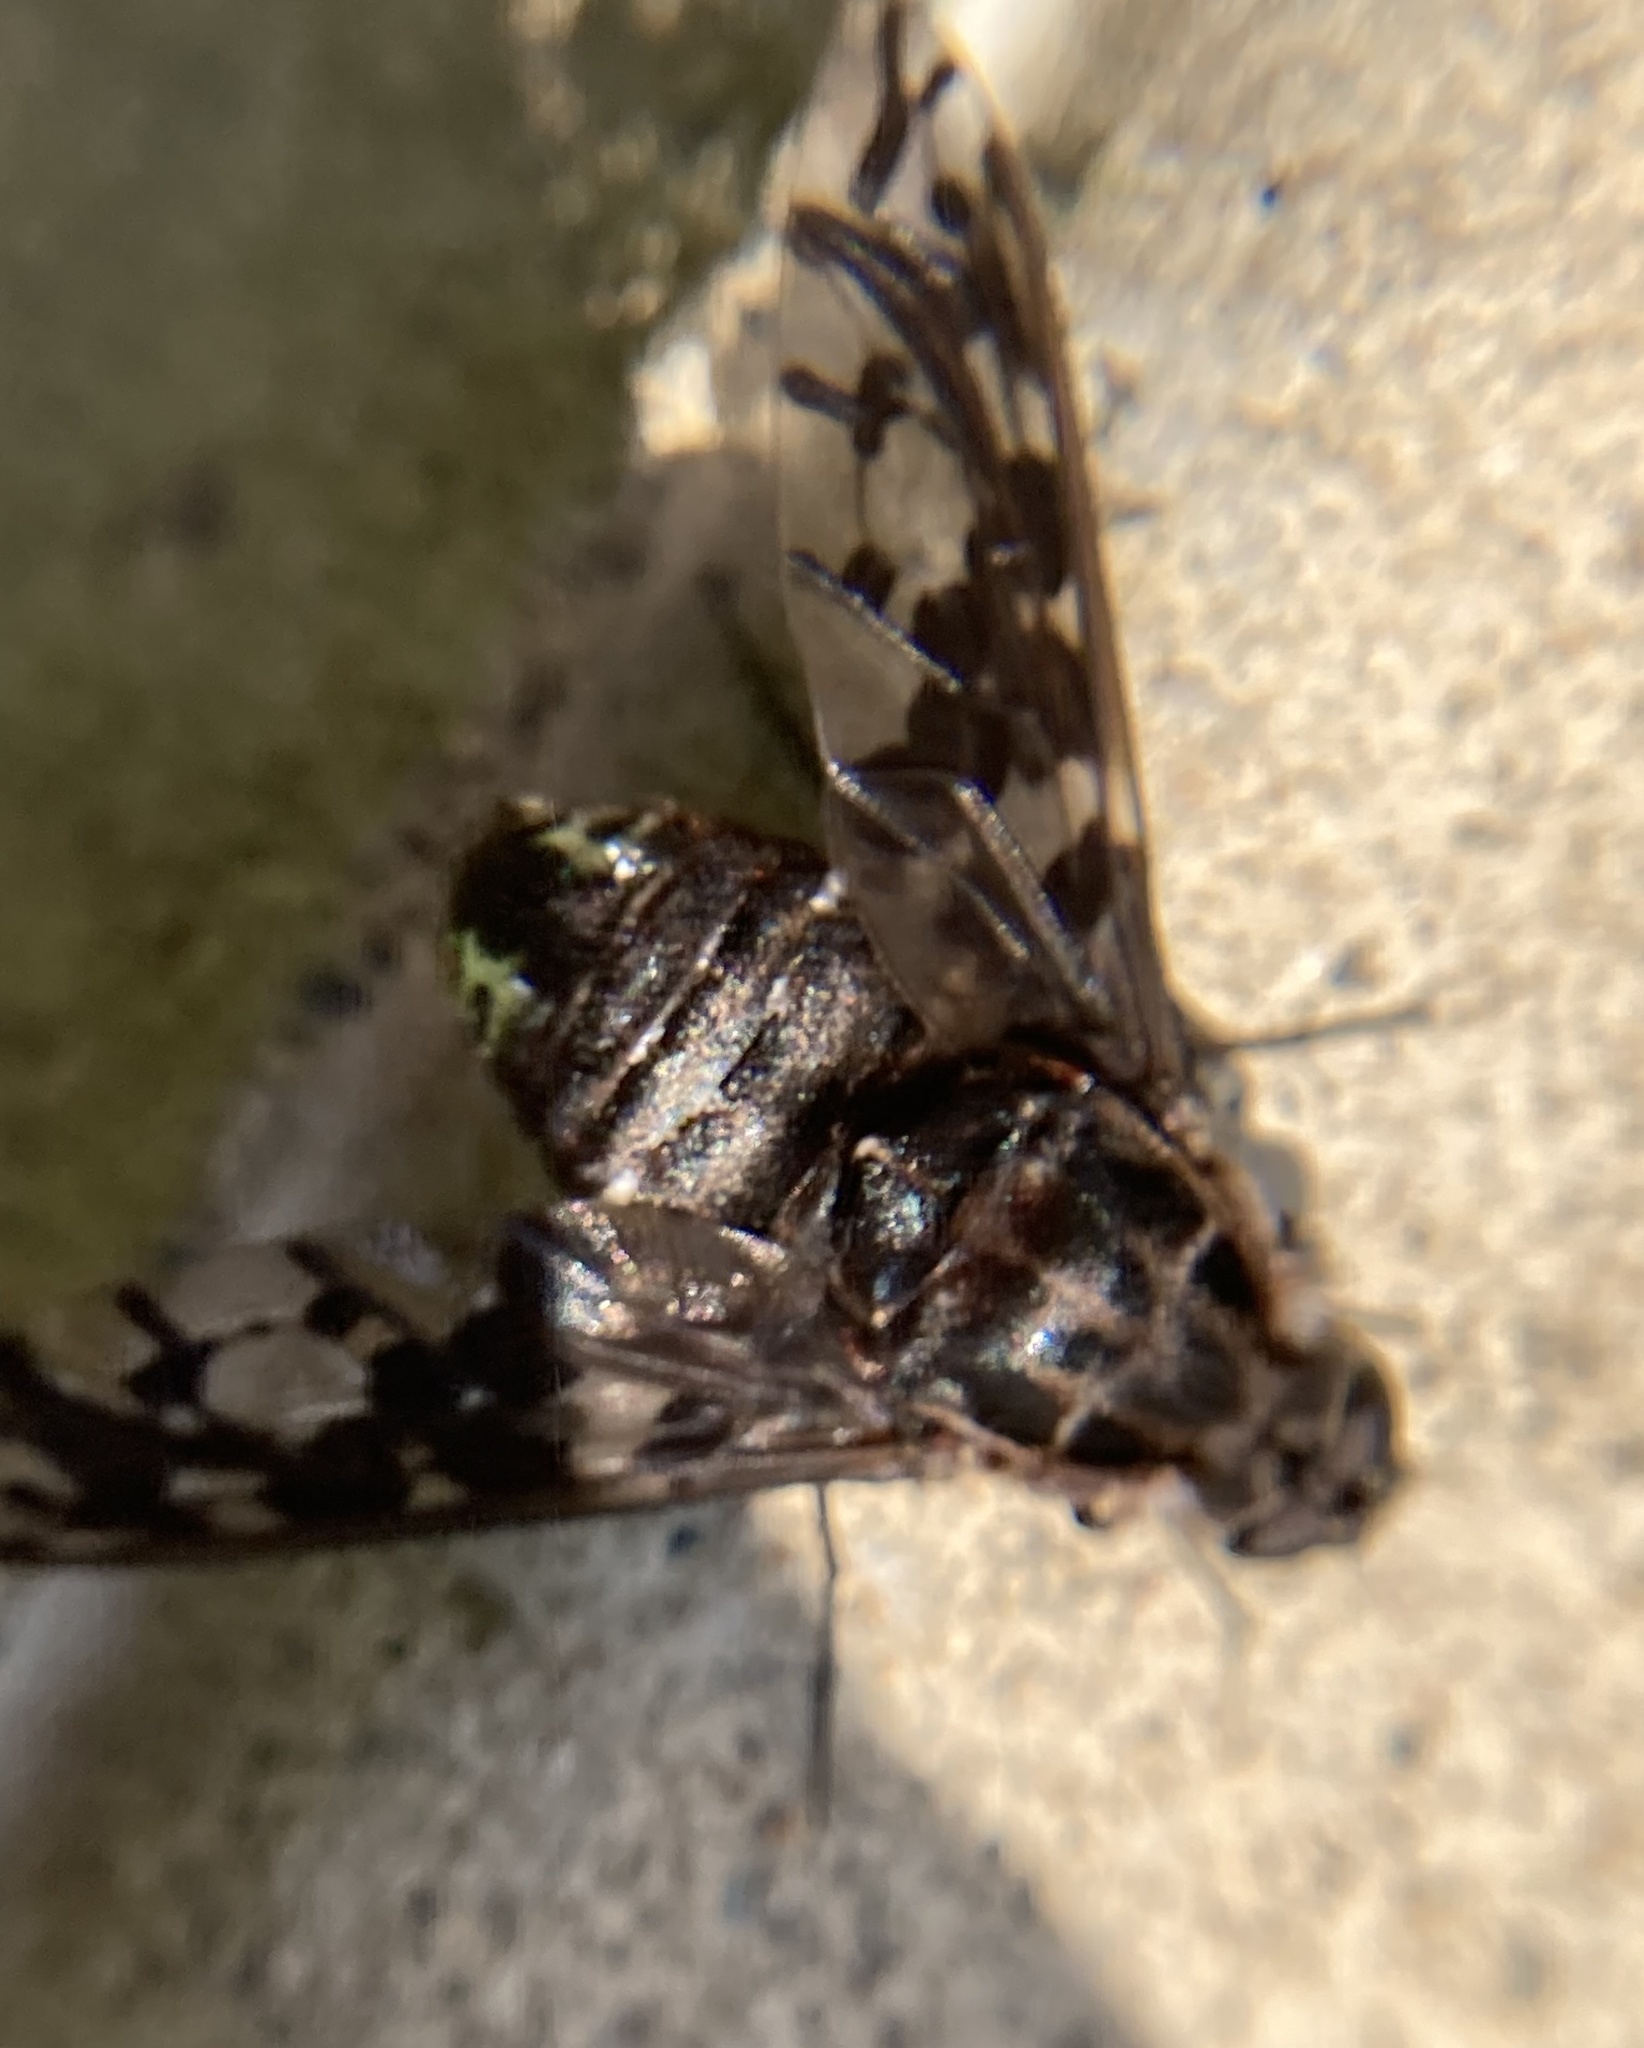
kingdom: Animalia
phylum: Arthropoda
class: Insecta
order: Diptera
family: Bombyliidae
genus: Xenox
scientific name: Xenox tigrinus
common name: Tiger bee fly
